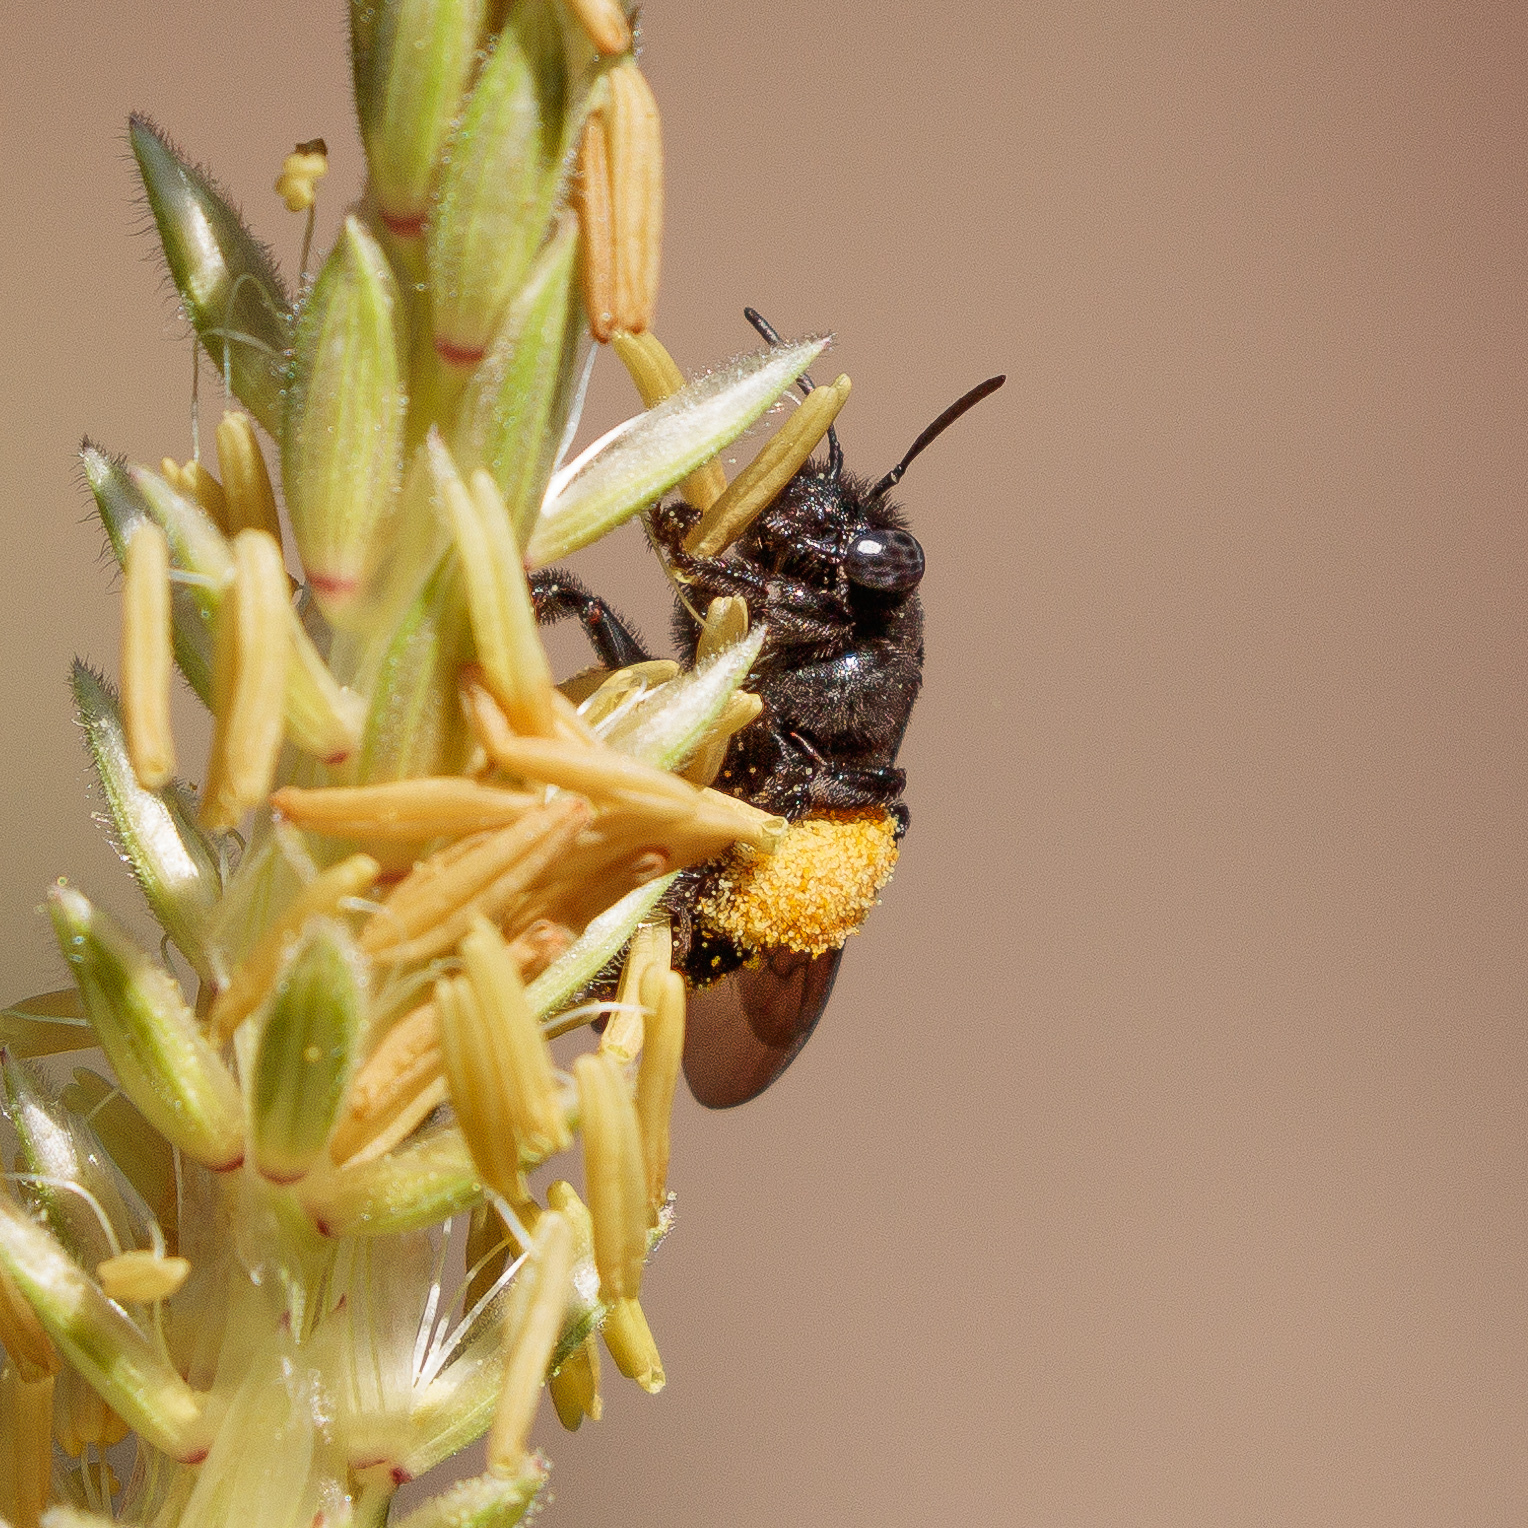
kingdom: Animalia
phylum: Arthropoda
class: Insecta
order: Hymenoptera
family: Apidae
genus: Melissodes
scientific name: Melissodes bimaculatus
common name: Two-spotted long-horned bee
